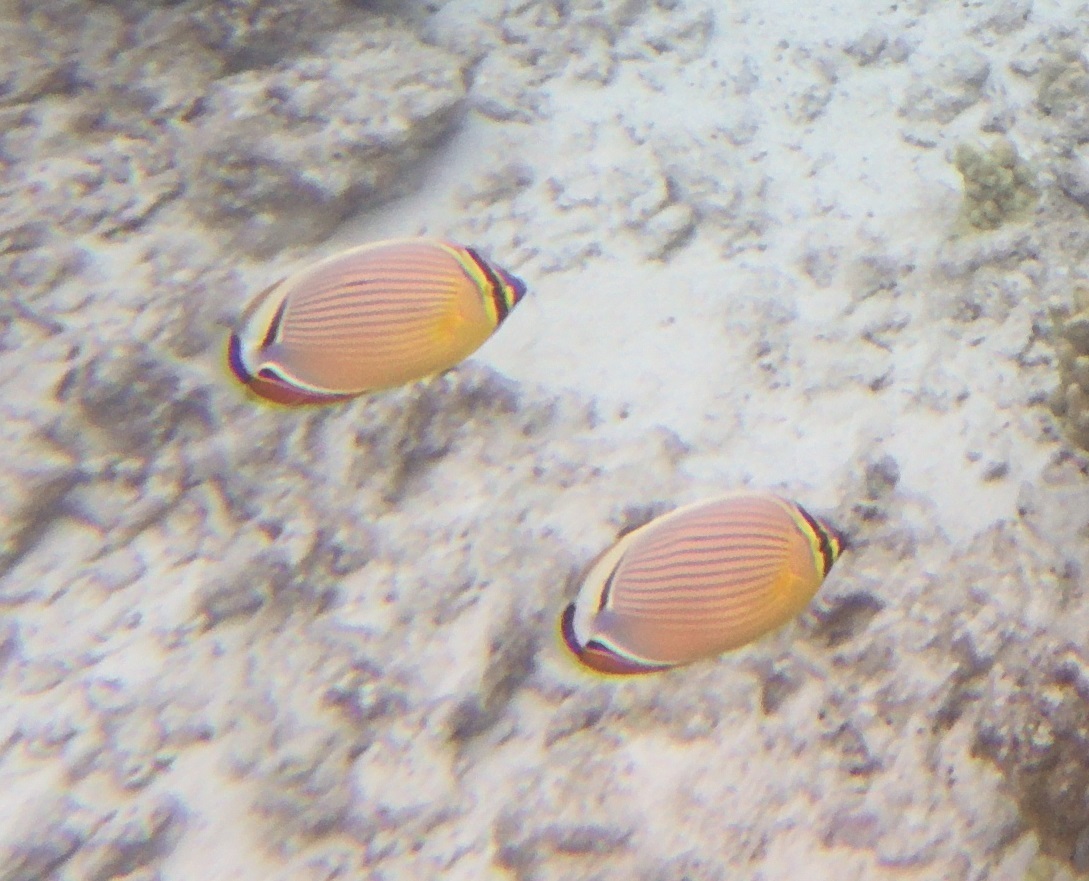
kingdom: Animalia
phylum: Chordata
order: Perciformes
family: Chaetodontidae
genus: Chaetodon
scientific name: Chaetodon lunulatus
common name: Redfin butterflyfish
